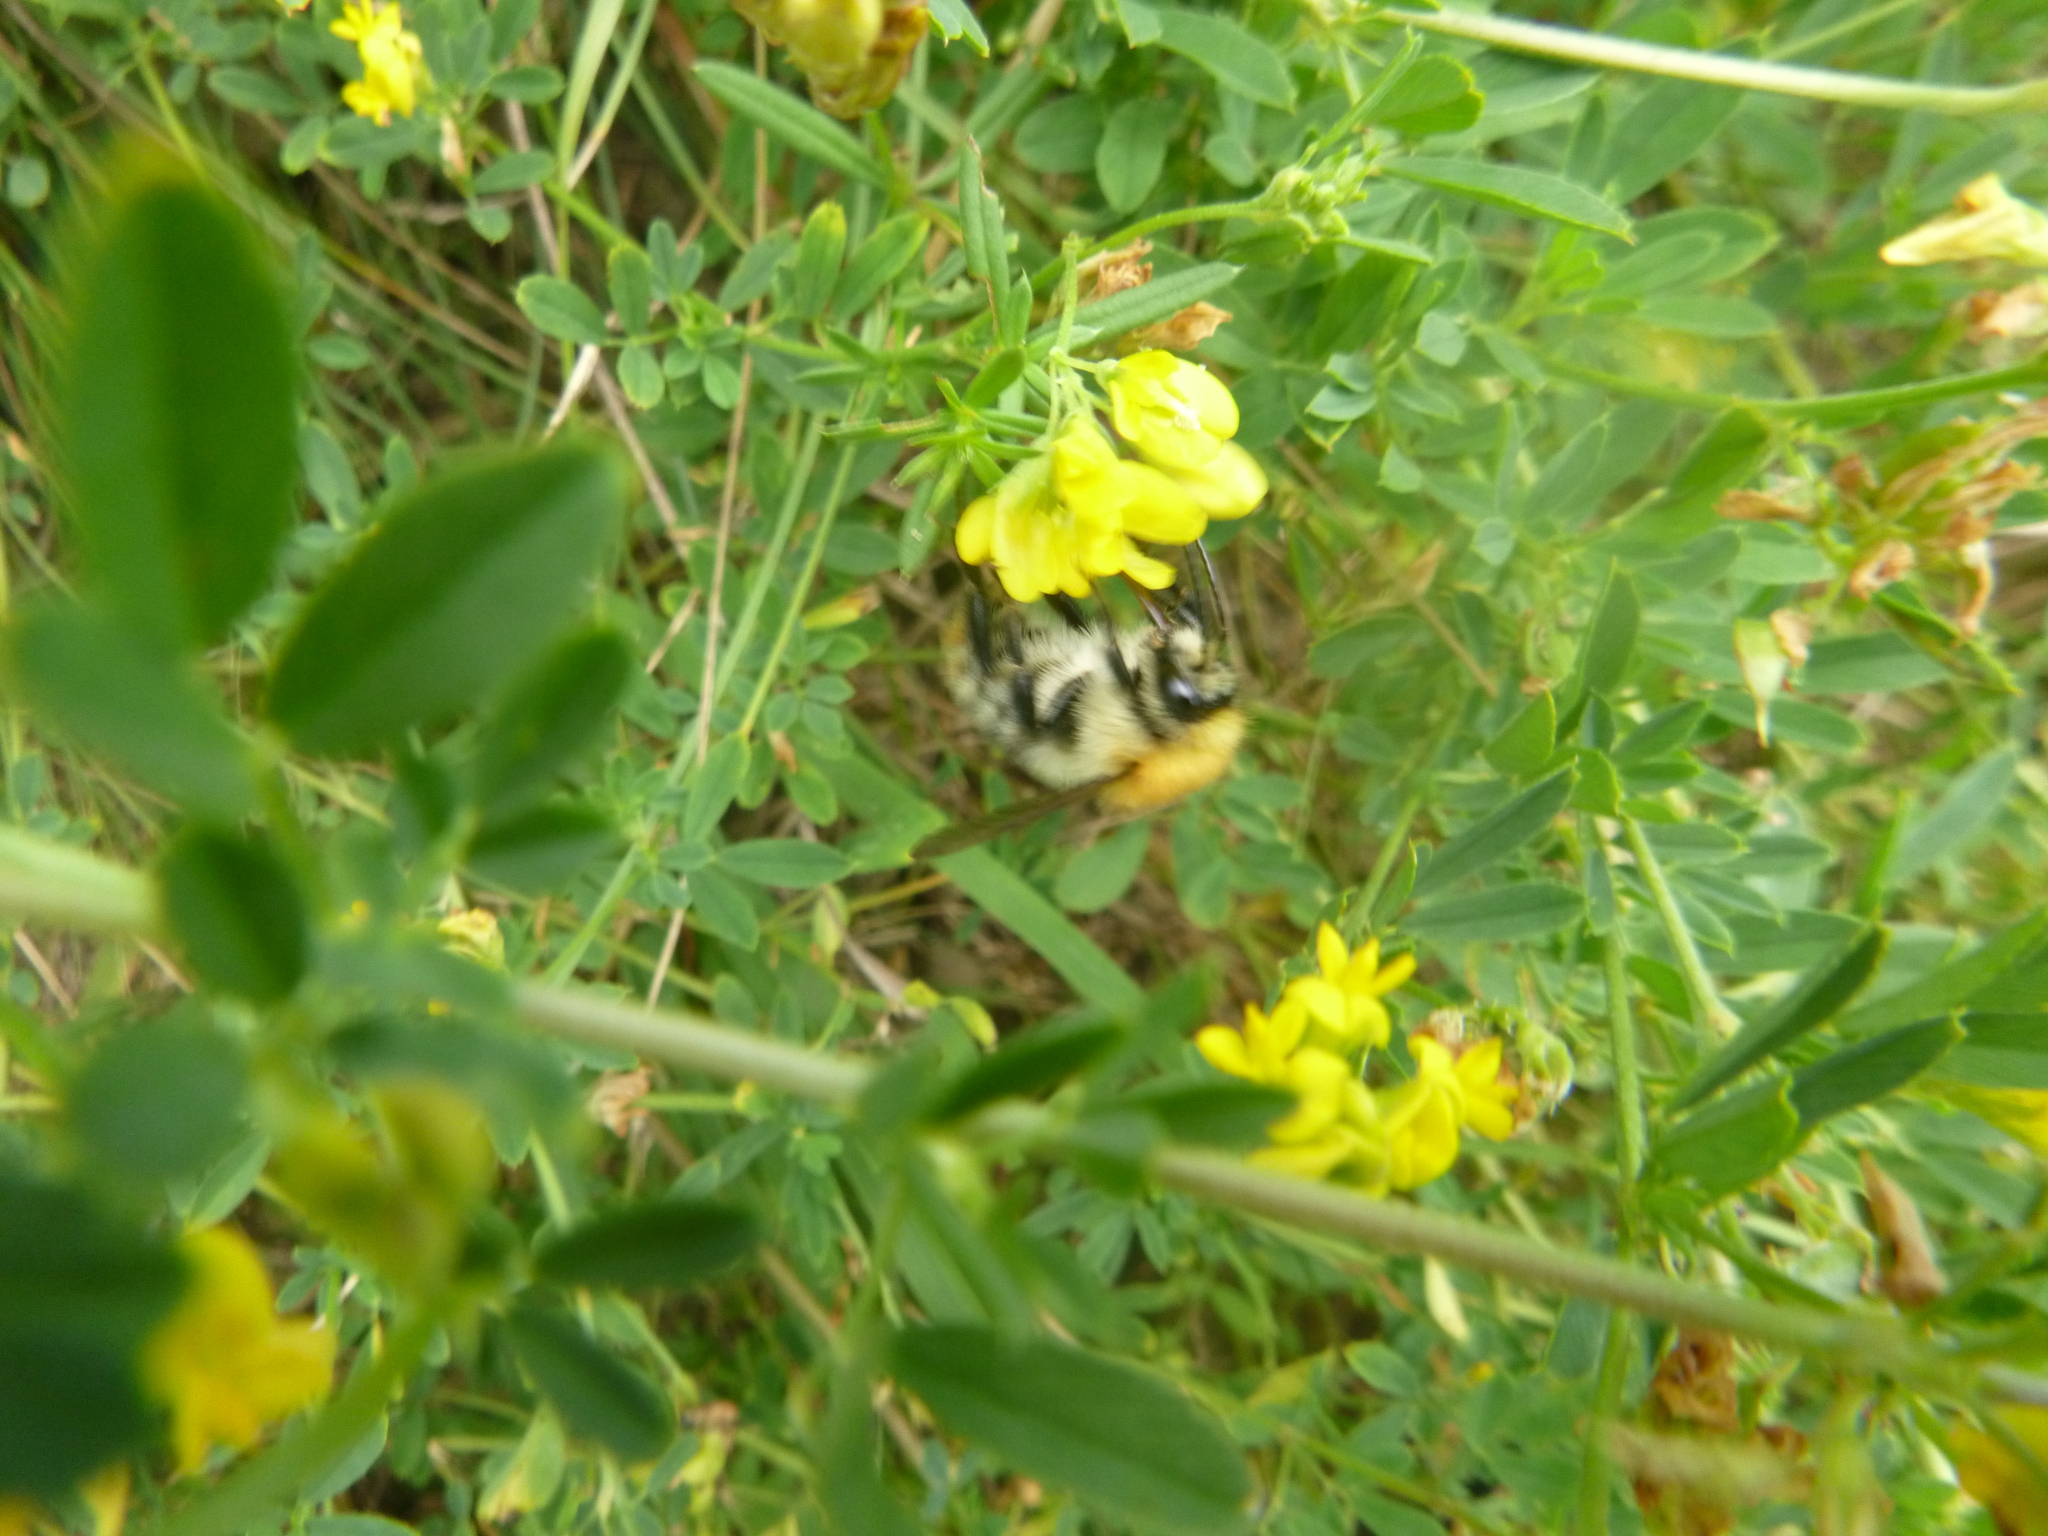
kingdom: Animalia
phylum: Arthropoda
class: Insecta
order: Hymenoptera
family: Apidae
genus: Bombus
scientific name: Bombus pascuorum
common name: Common carder bee
